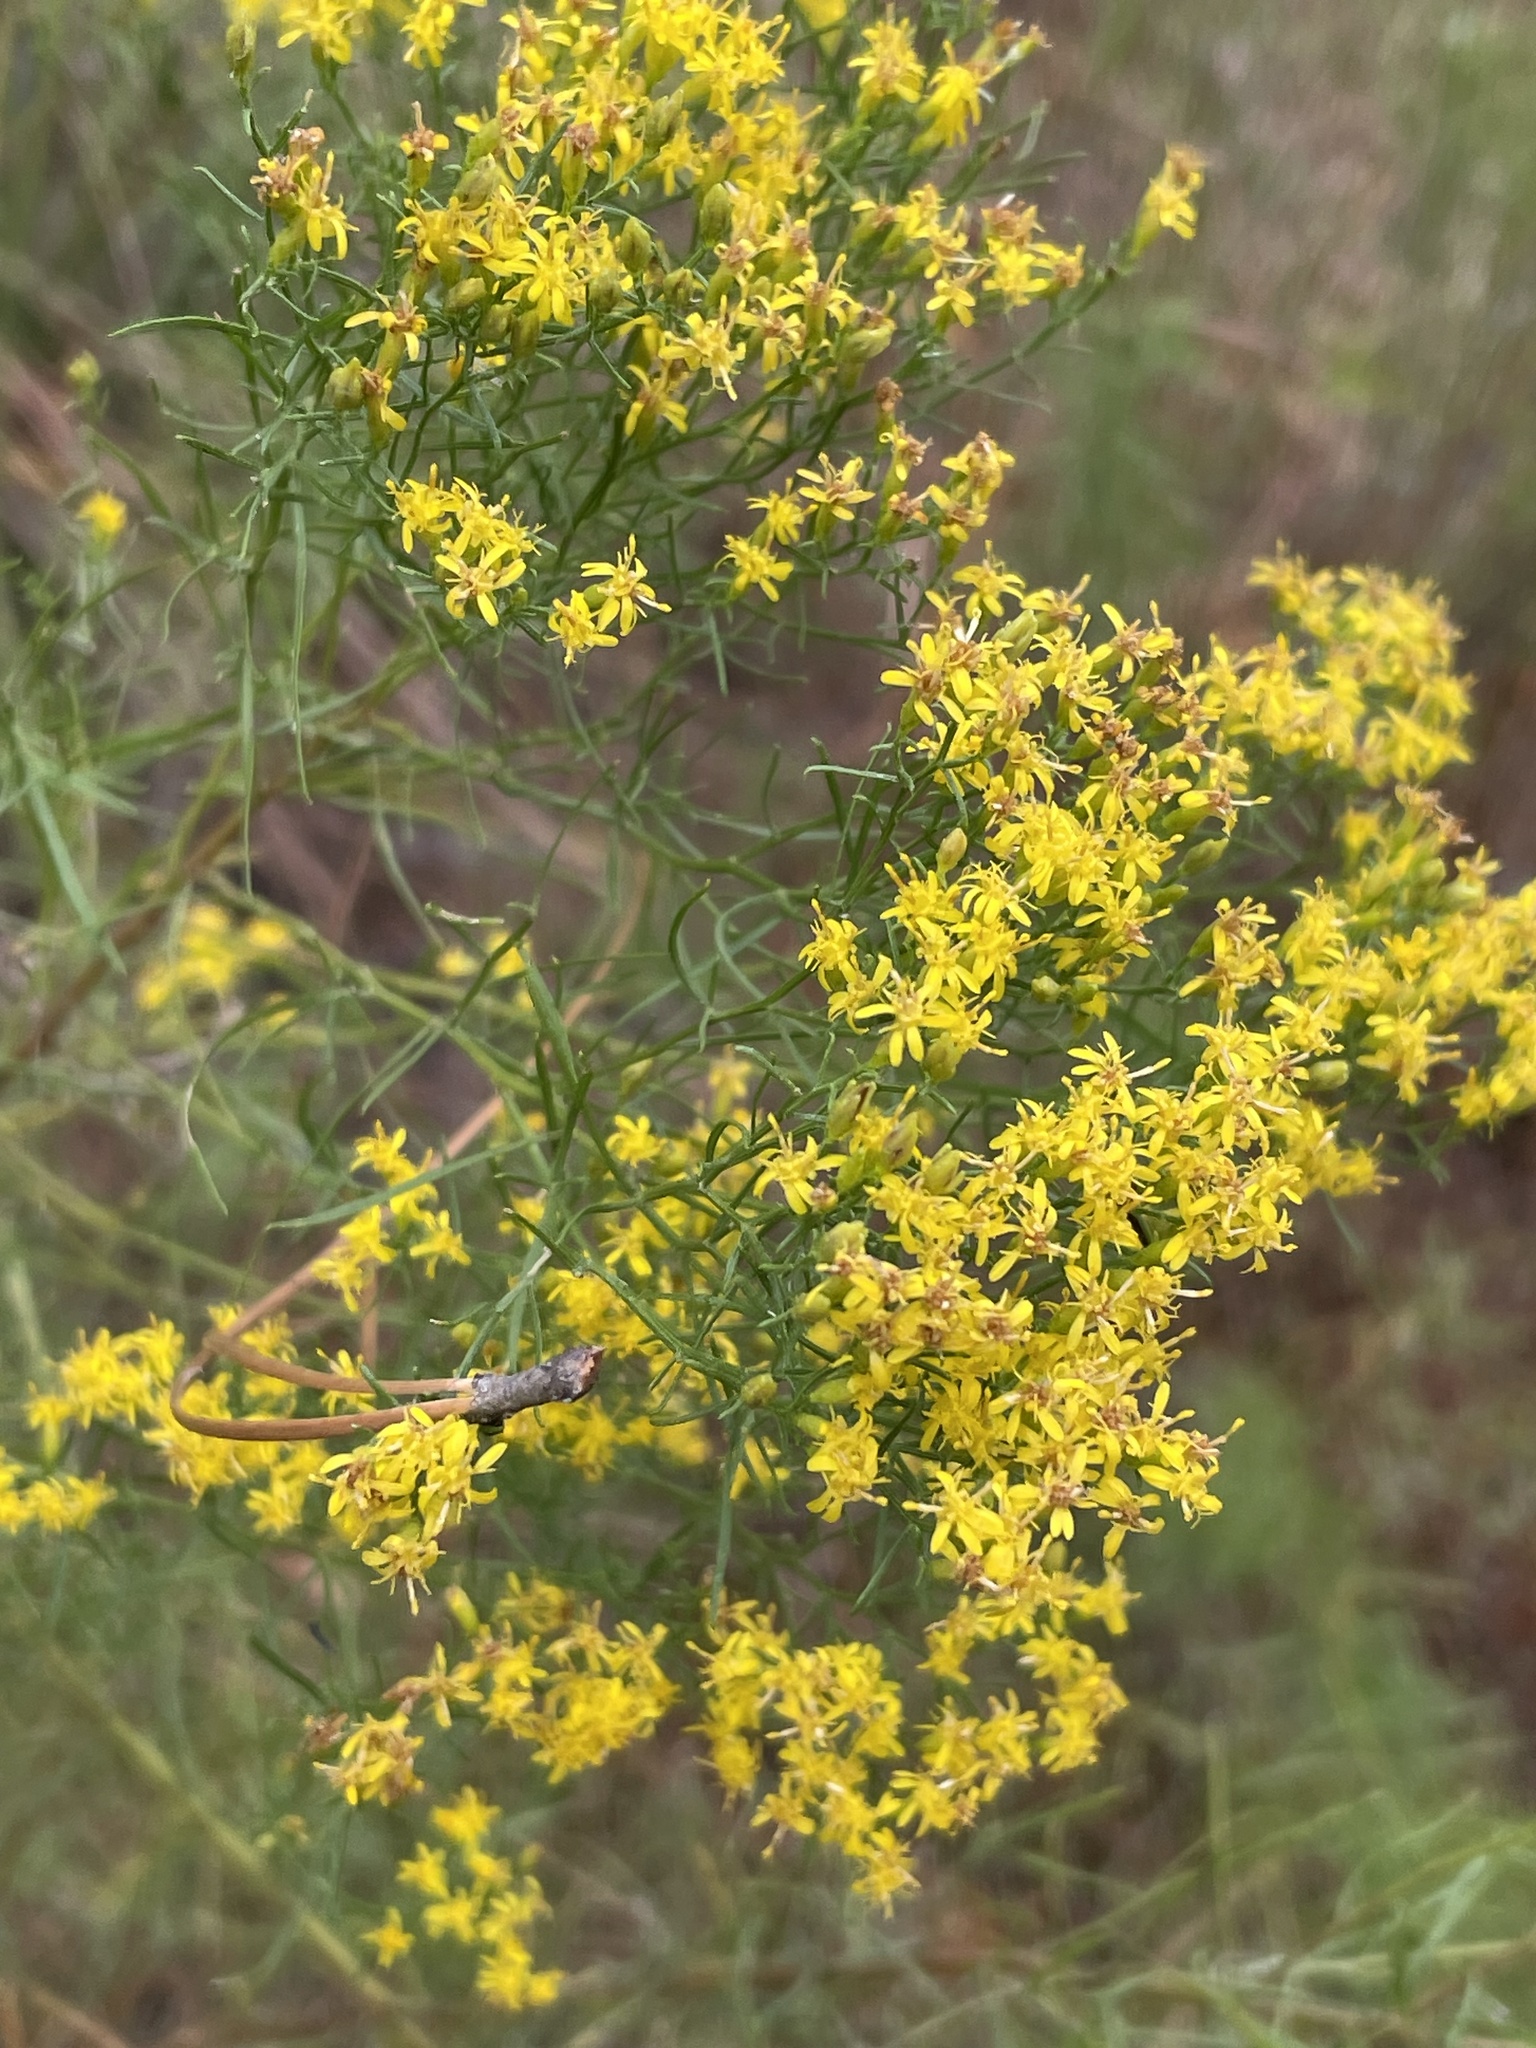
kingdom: Plantae
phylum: Tracheophyta
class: Magnoliopsida
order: Asterales
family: Asteraceae
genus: Euthamia
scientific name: Euthamia caroliniana
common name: Coastal plain goldentop
